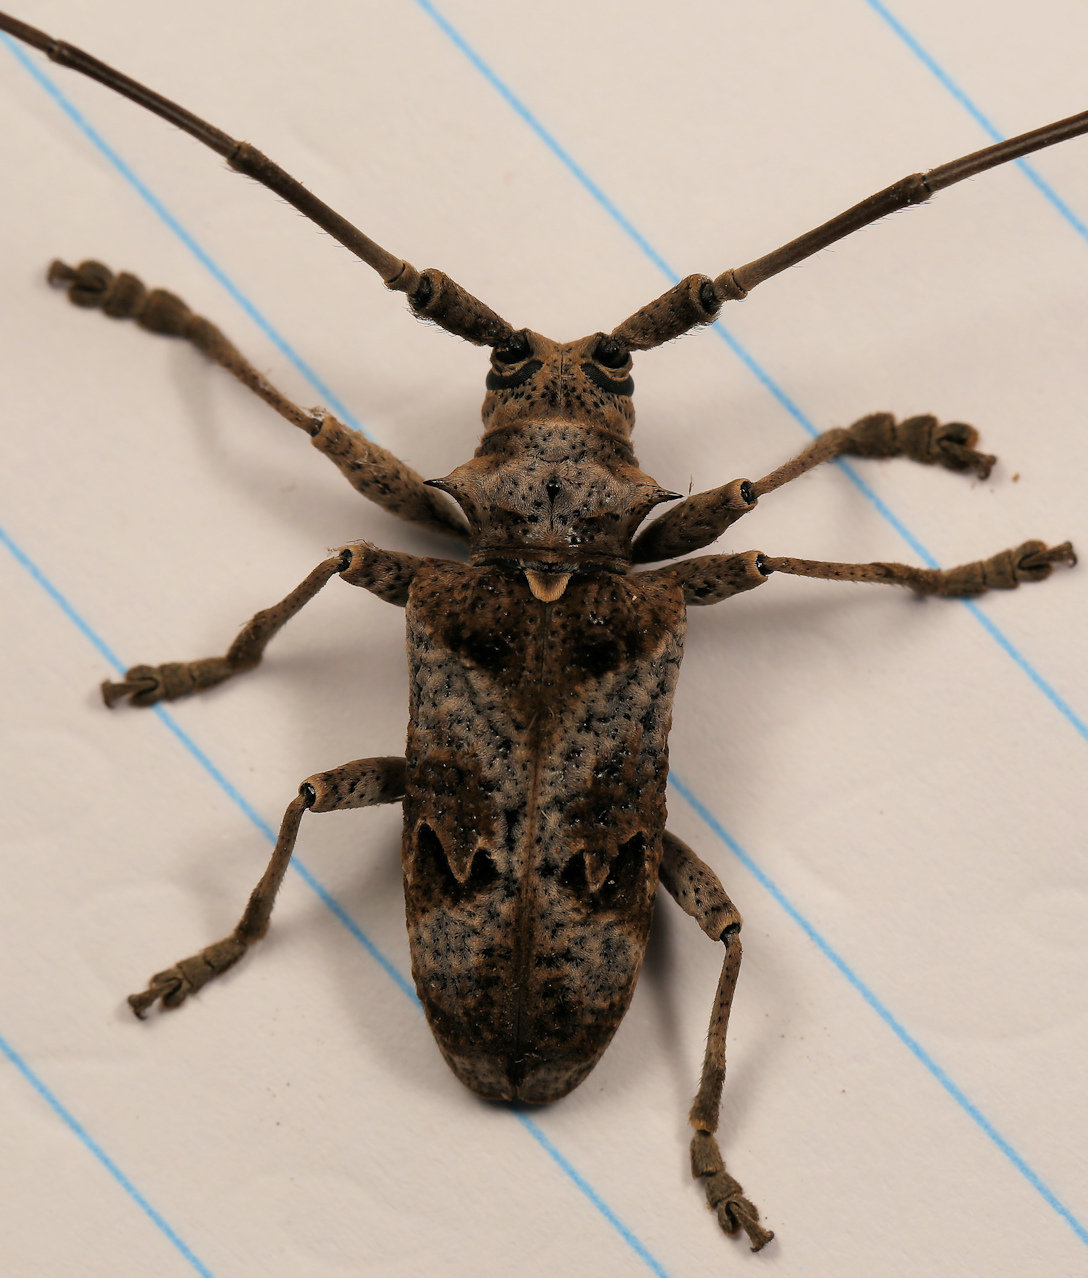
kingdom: Animalia
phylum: Arthropoda
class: Insecta
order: Coleoptera
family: Cerambycidae
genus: Monochamus
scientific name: Monochamus spectabilis
